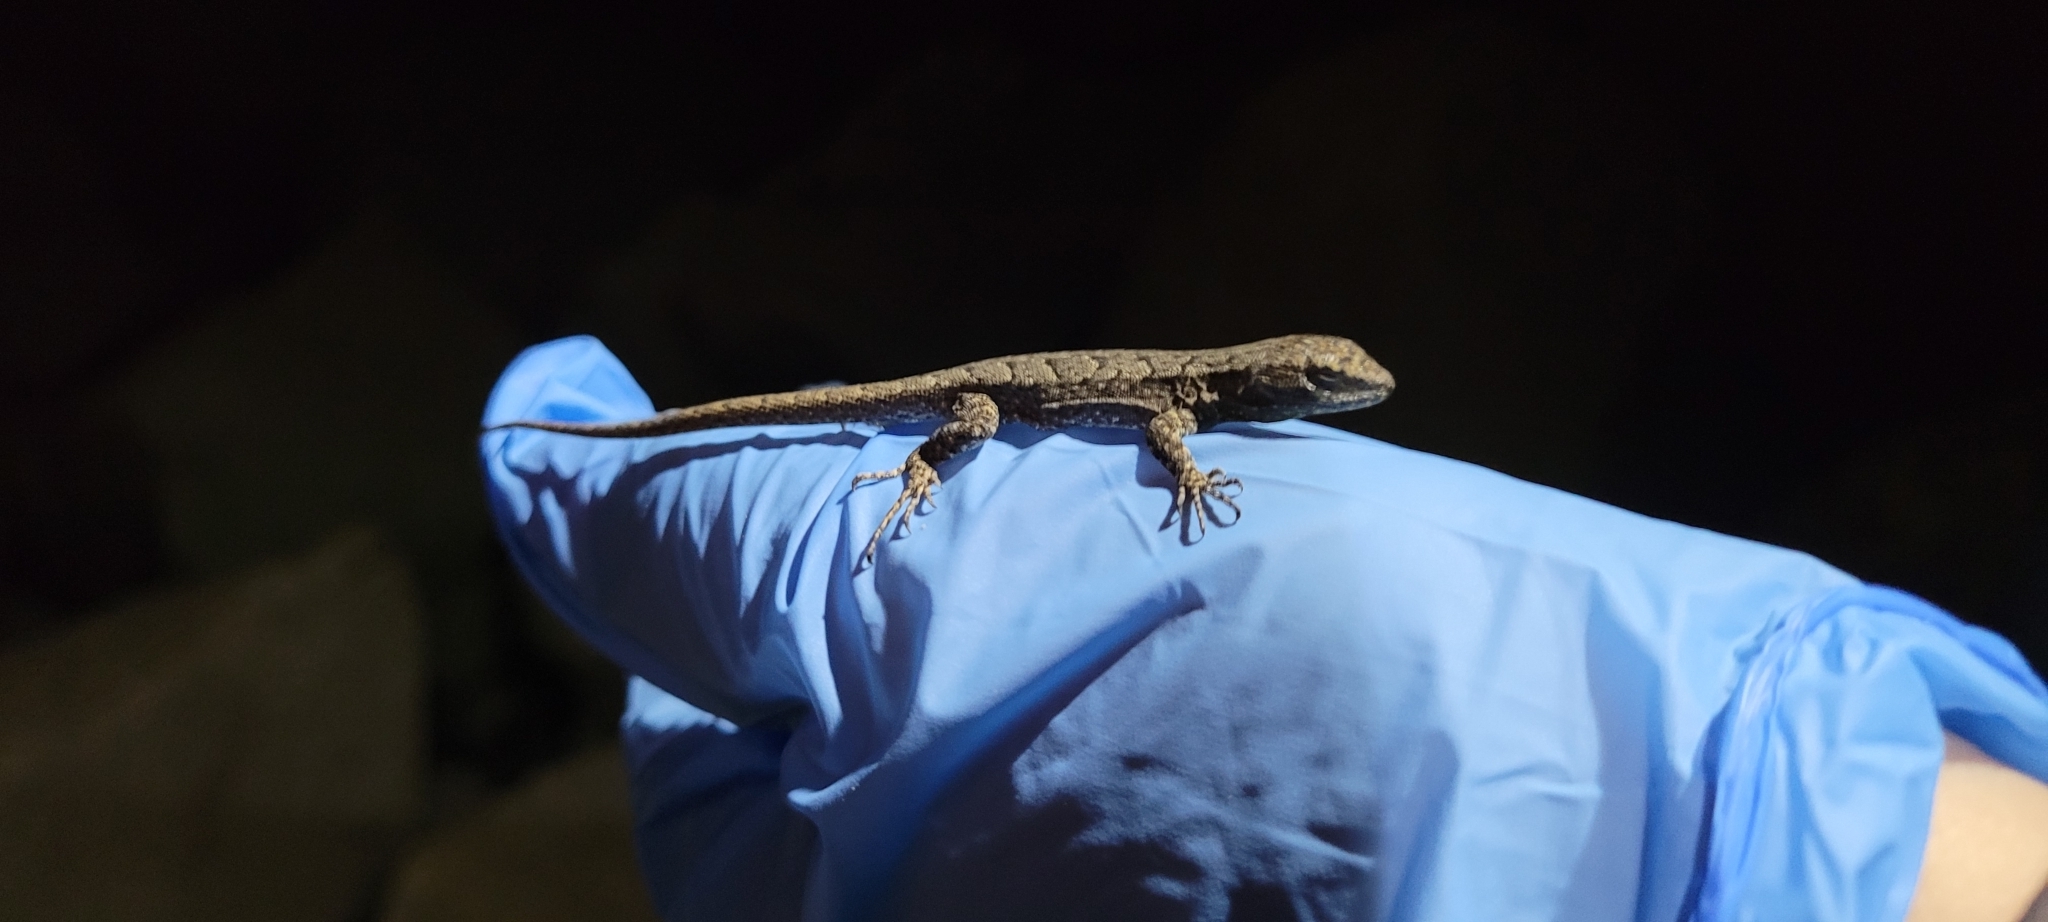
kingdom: Animalia
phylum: Chordata
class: Squamata
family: Liolaemidae
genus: Liolaemus
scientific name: Liolaemus tenuis
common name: Thin tree iguana
